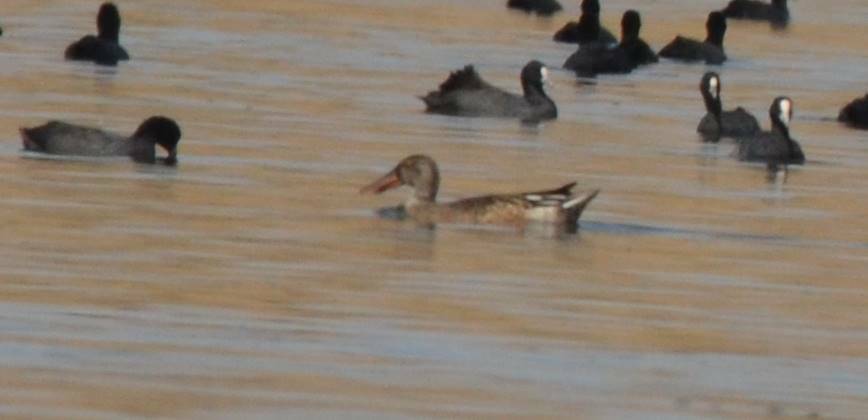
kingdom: Animalia
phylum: Chordata
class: Aves
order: Anseriformes
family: Anatidae
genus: Spatula
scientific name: Spatula clypeata
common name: Northern shoveler
